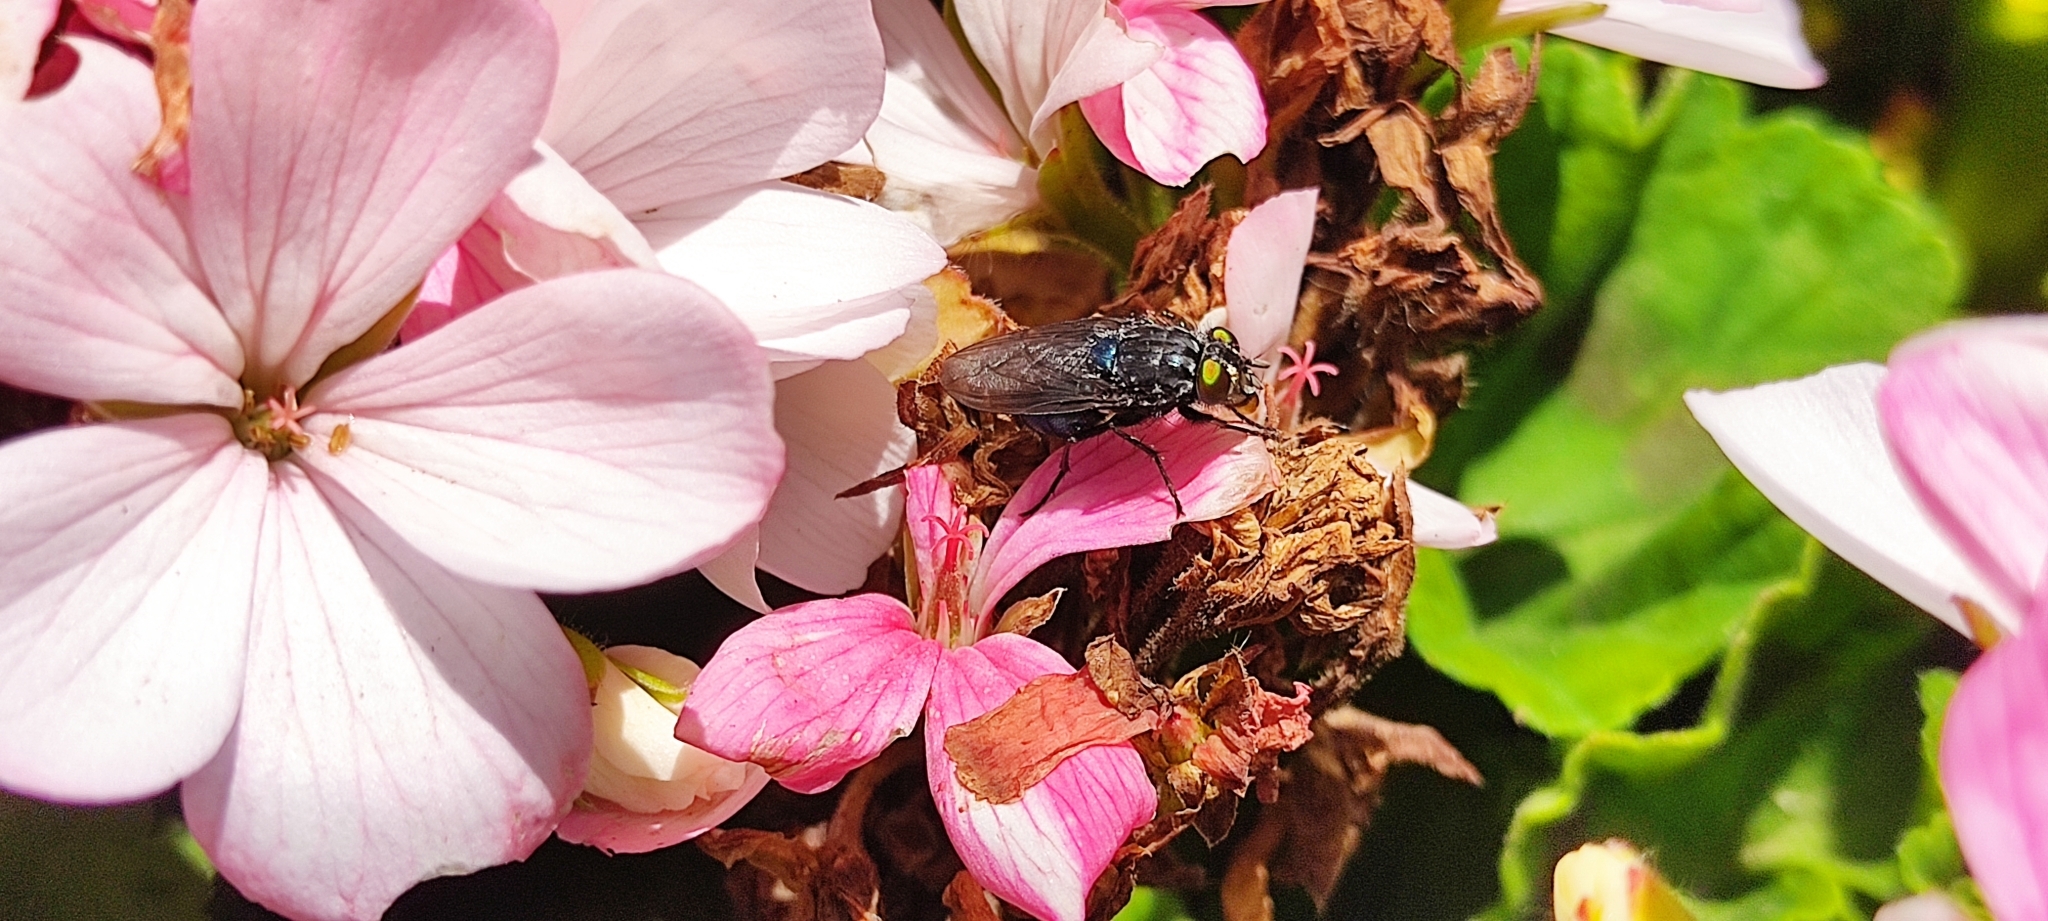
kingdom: Animalia
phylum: Arthropoda
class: Insecta
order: Diptera
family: Calliphoridae
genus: Sarconesia
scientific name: Sarconesia magellanica
